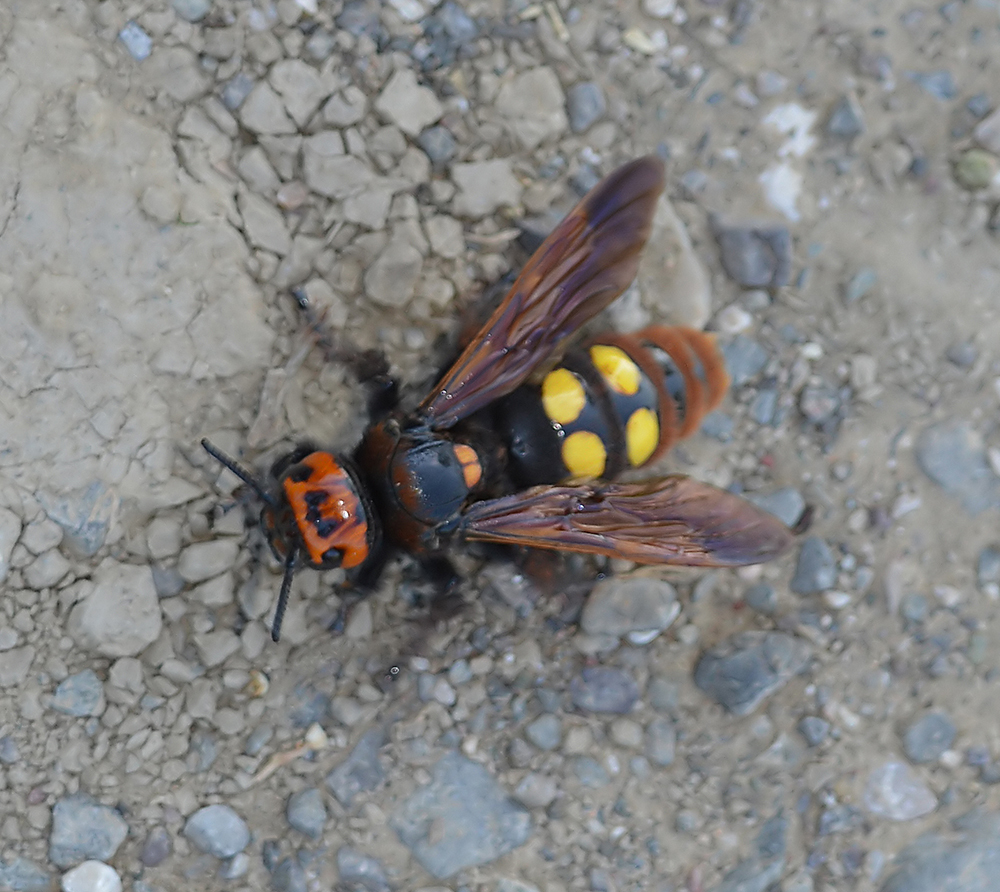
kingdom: Animalia
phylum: Arthropoda
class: Insecta
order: Hymenoptera
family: Scoliidae
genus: Megascolia
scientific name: Megascolia maculata
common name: Mammoth wasp
